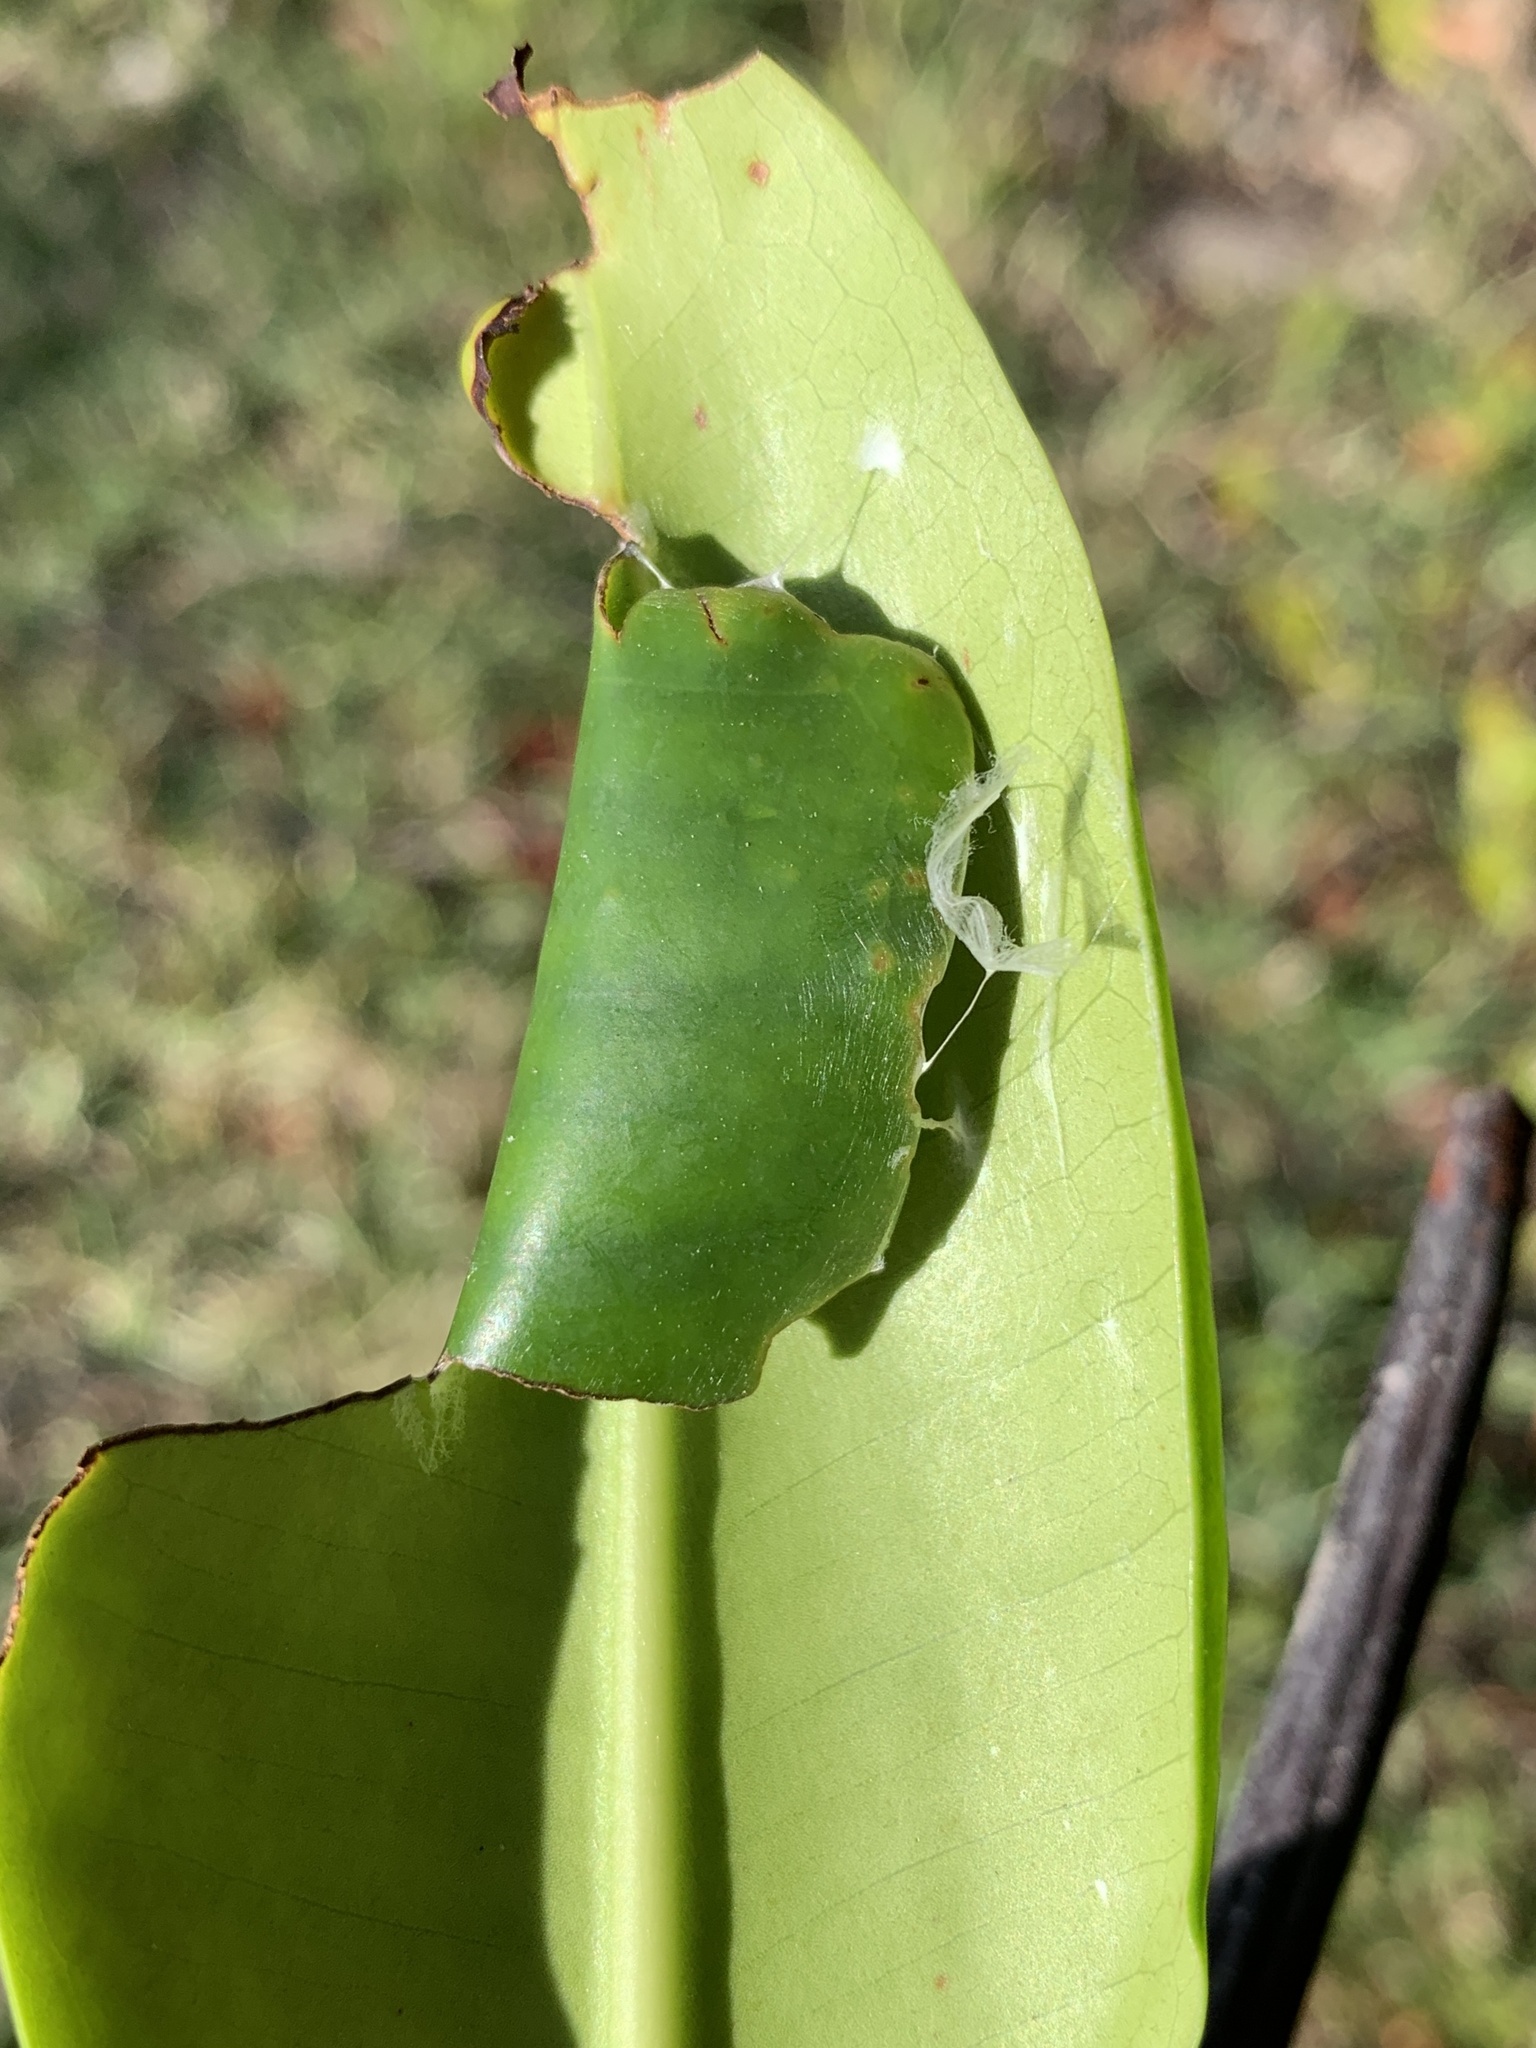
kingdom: Animalia
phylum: Arthropoda
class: Insecta
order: Lepidoptera
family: Hesperiidae
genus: Phocides
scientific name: Phocides pigmalion
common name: Mangrove skipper
